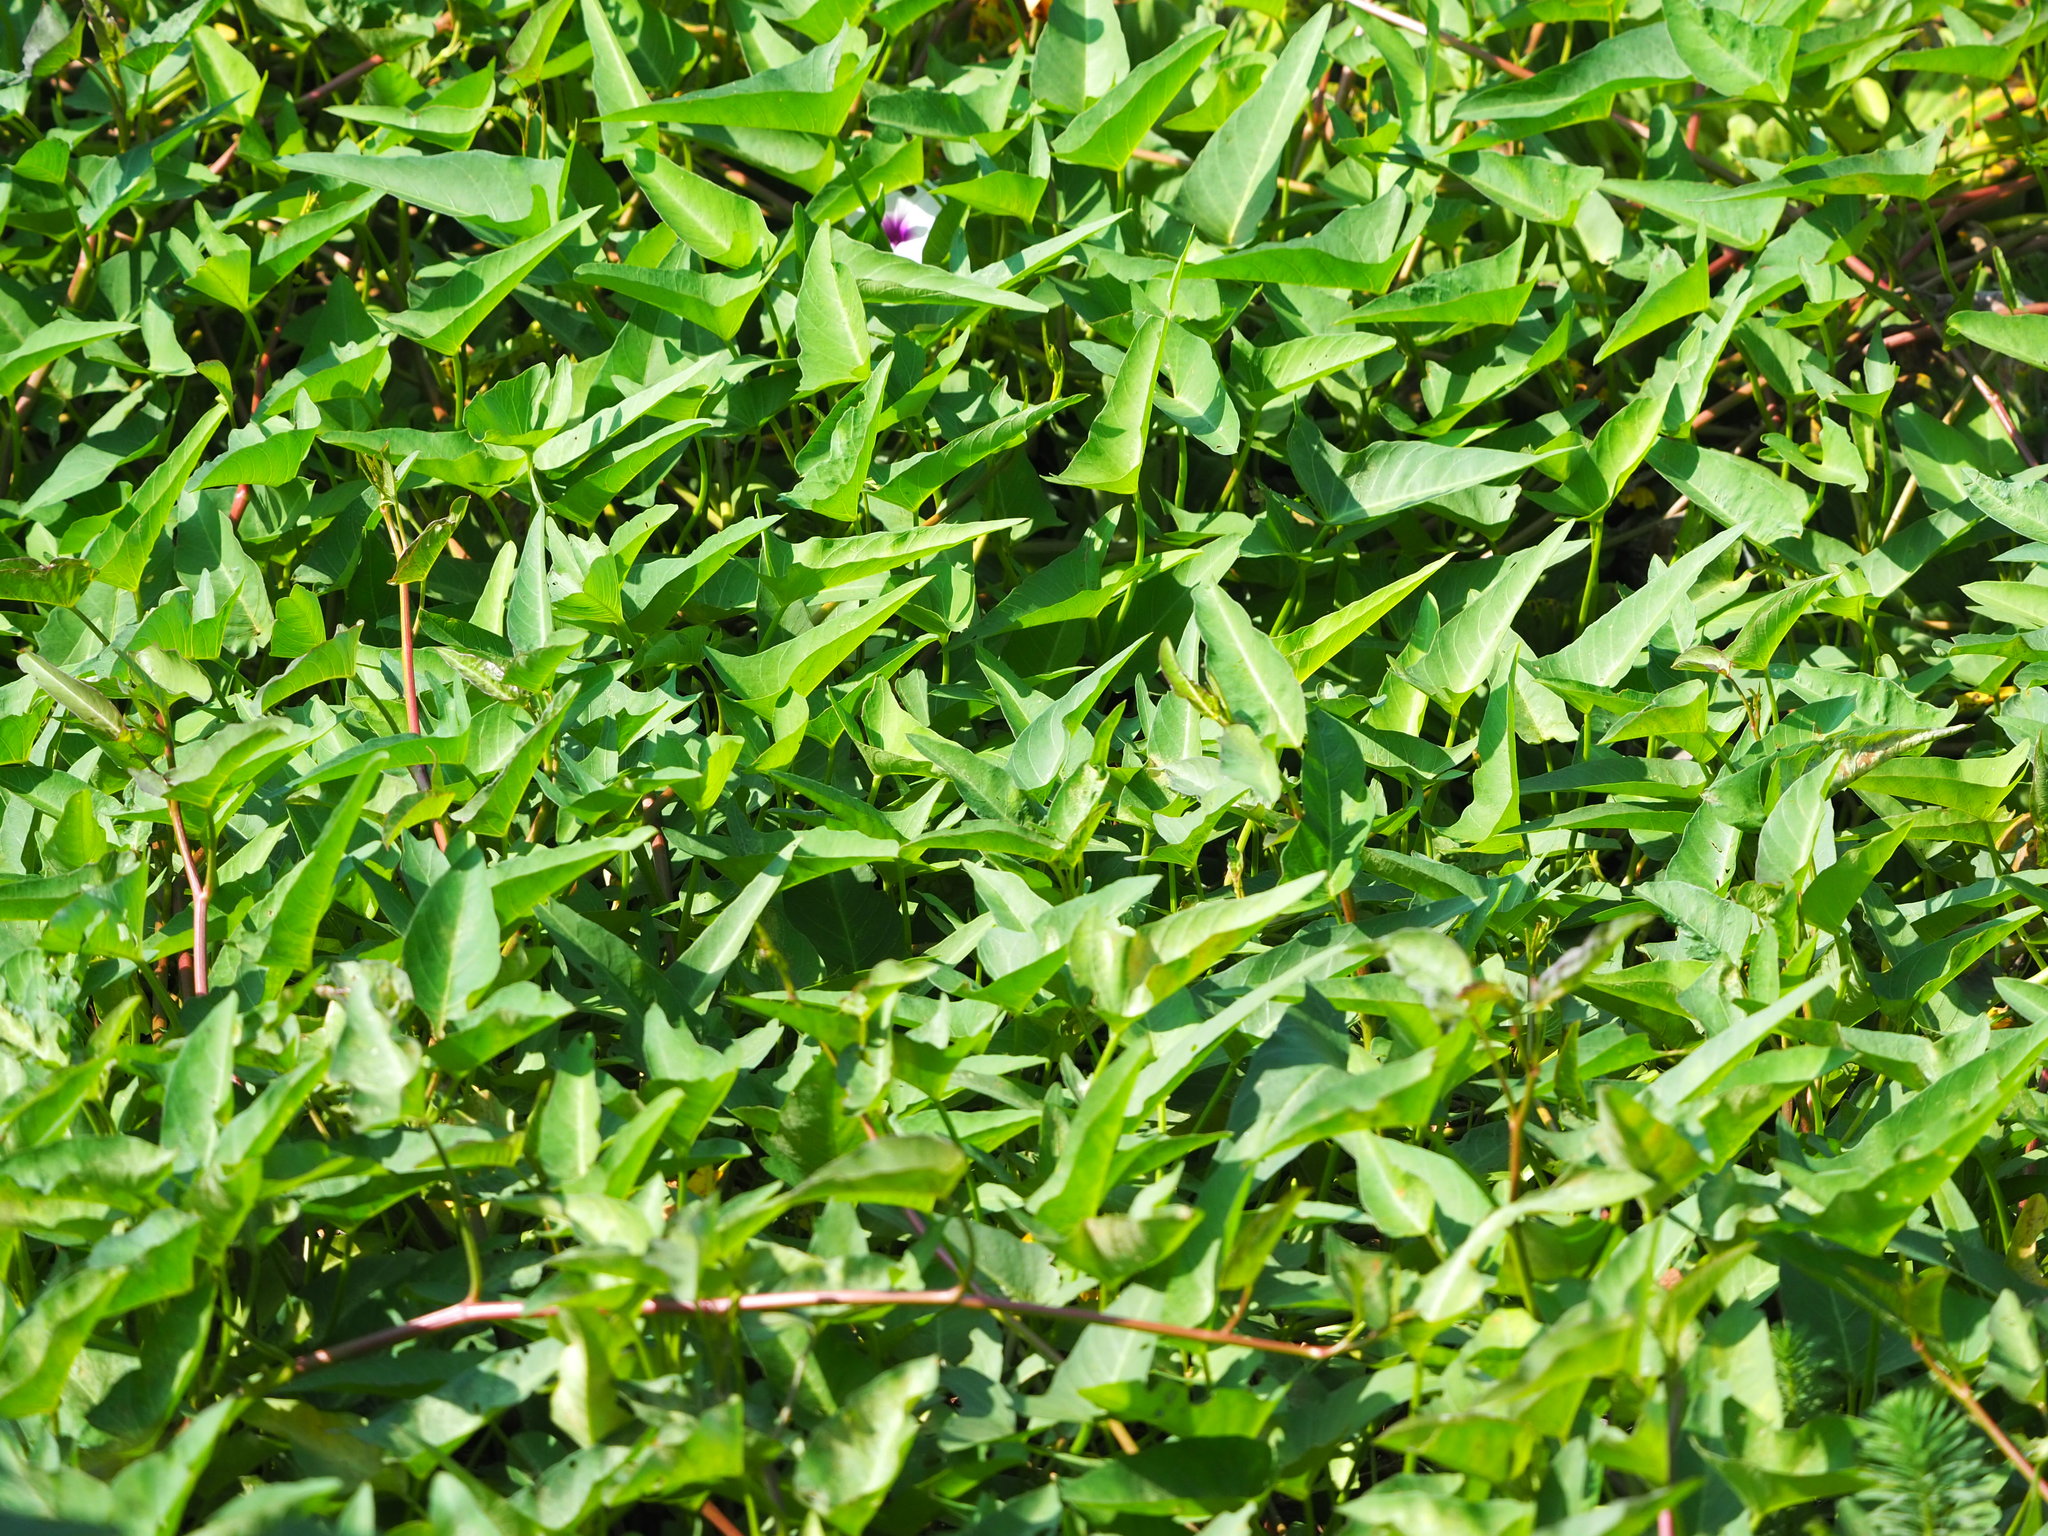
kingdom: Plantae
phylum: Tracheophyta
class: Magnoliopsida
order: Solanales
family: Convolvulaceae
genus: Ipomoea
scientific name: Ipomoea aquatica
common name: Swamp morning-glory
